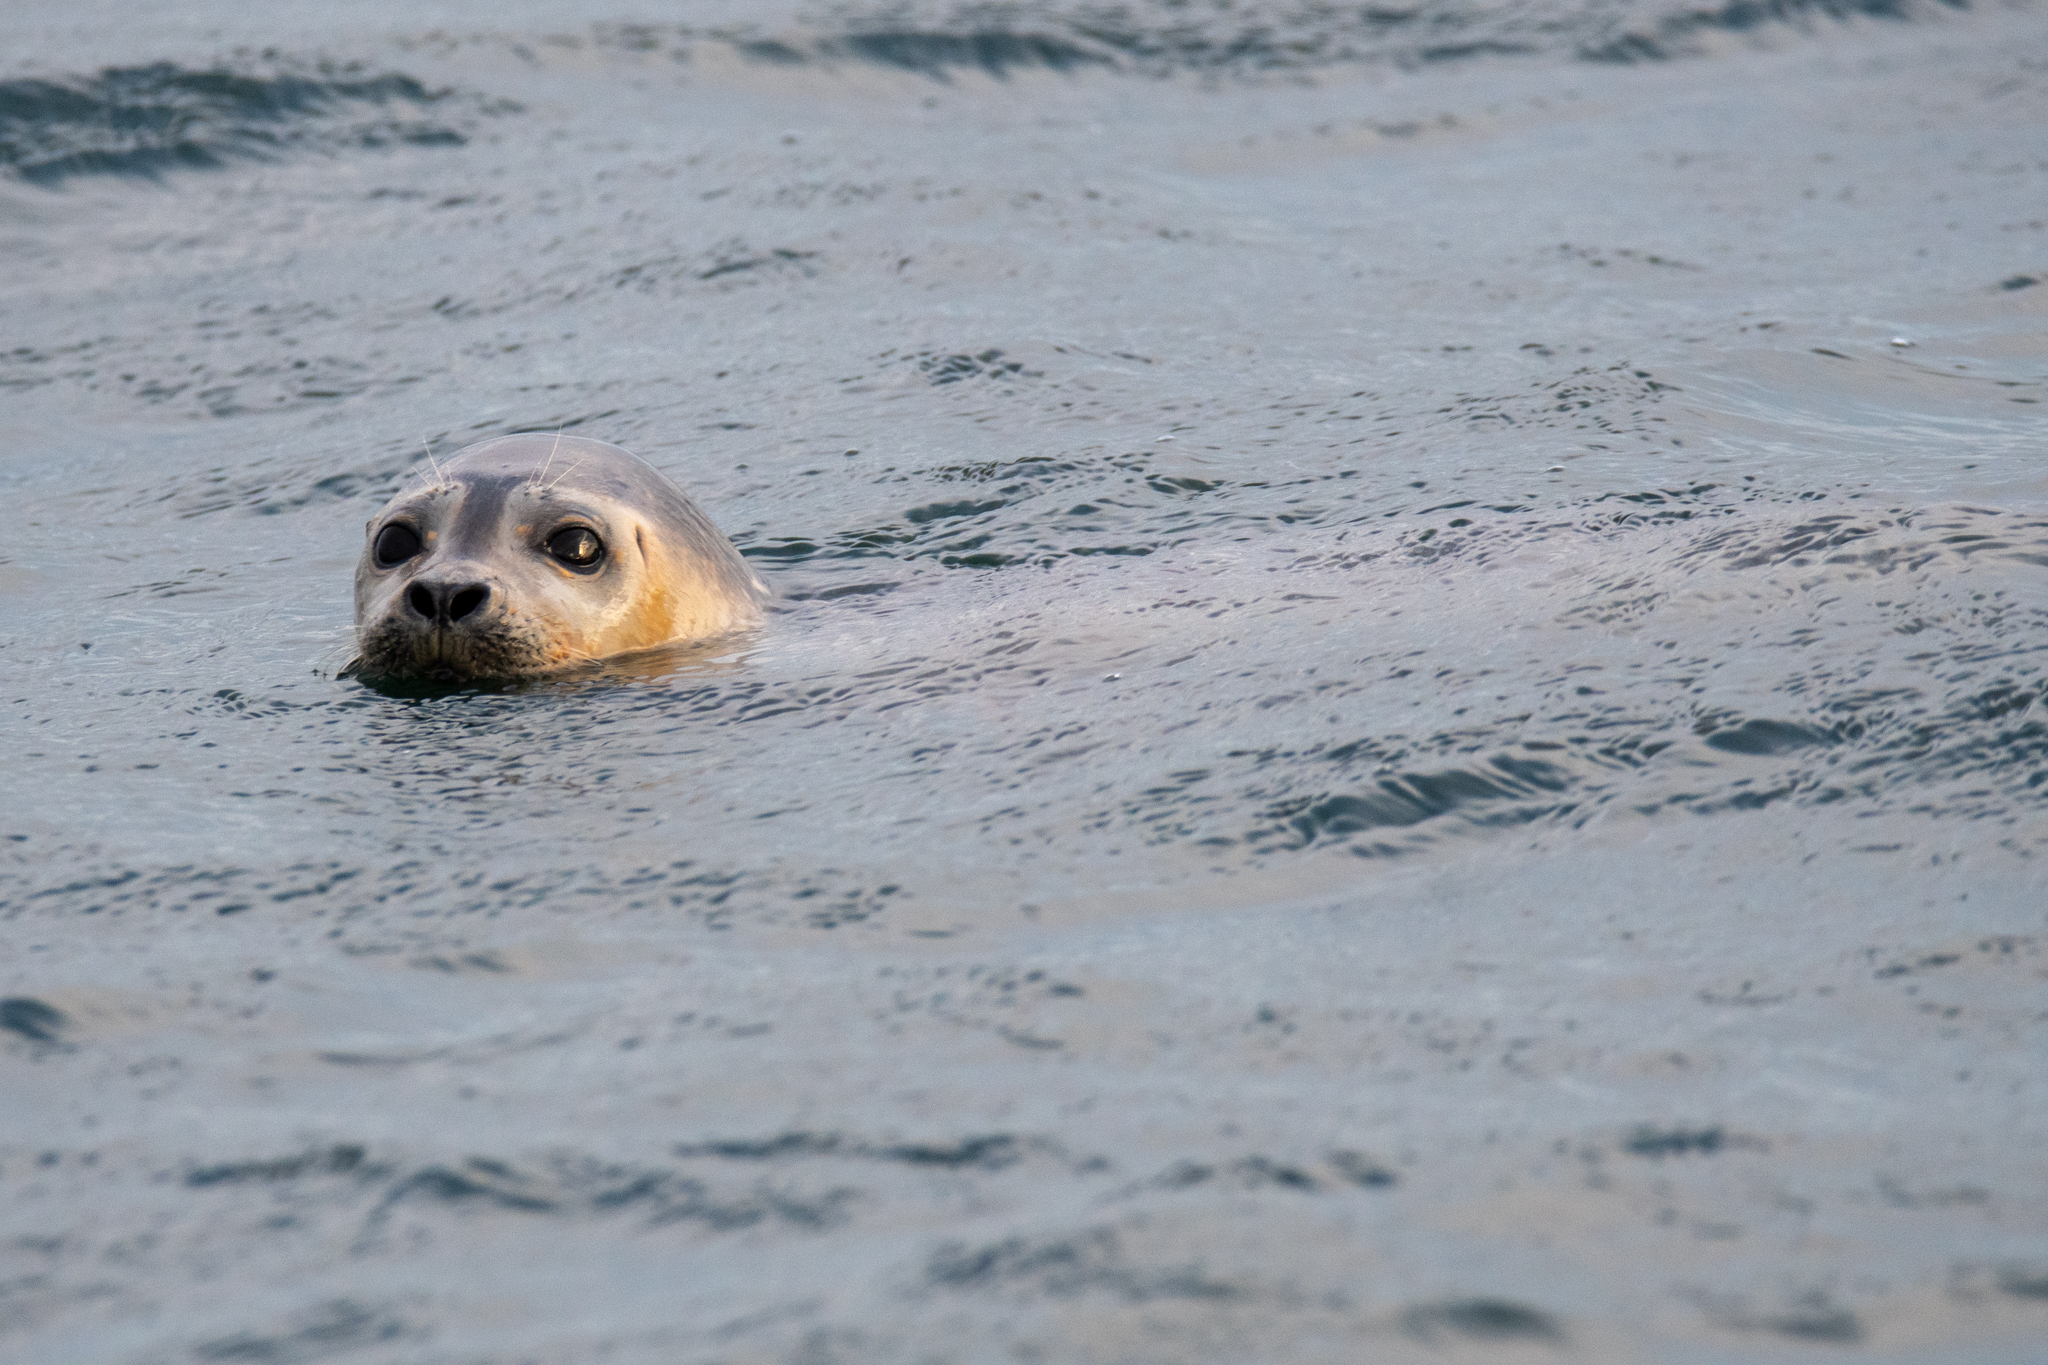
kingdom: Animalia
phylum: Chordata
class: Mammalia
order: Carnivora
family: Phocidae
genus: Phoca
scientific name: Phoca vitulina
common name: Harbor seal
